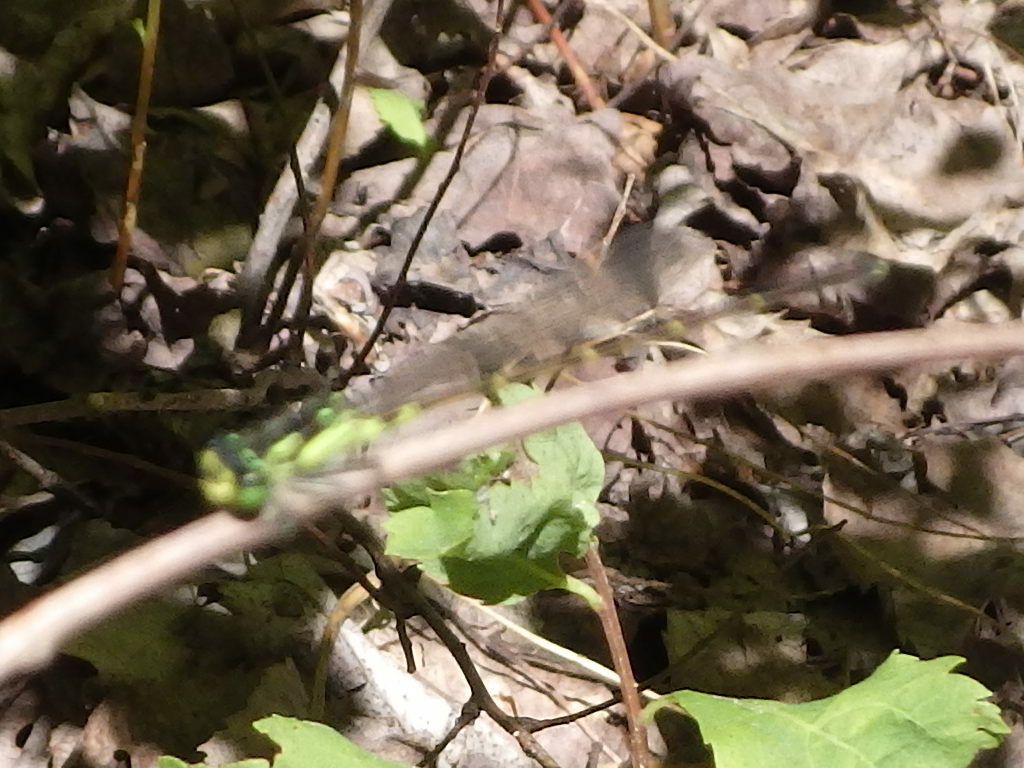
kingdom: Animalia
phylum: Arthropoda
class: Insecta
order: Odonata
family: Coenagrionidae
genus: Ischnura
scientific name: Ischnura posita
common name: Fragile forktail
